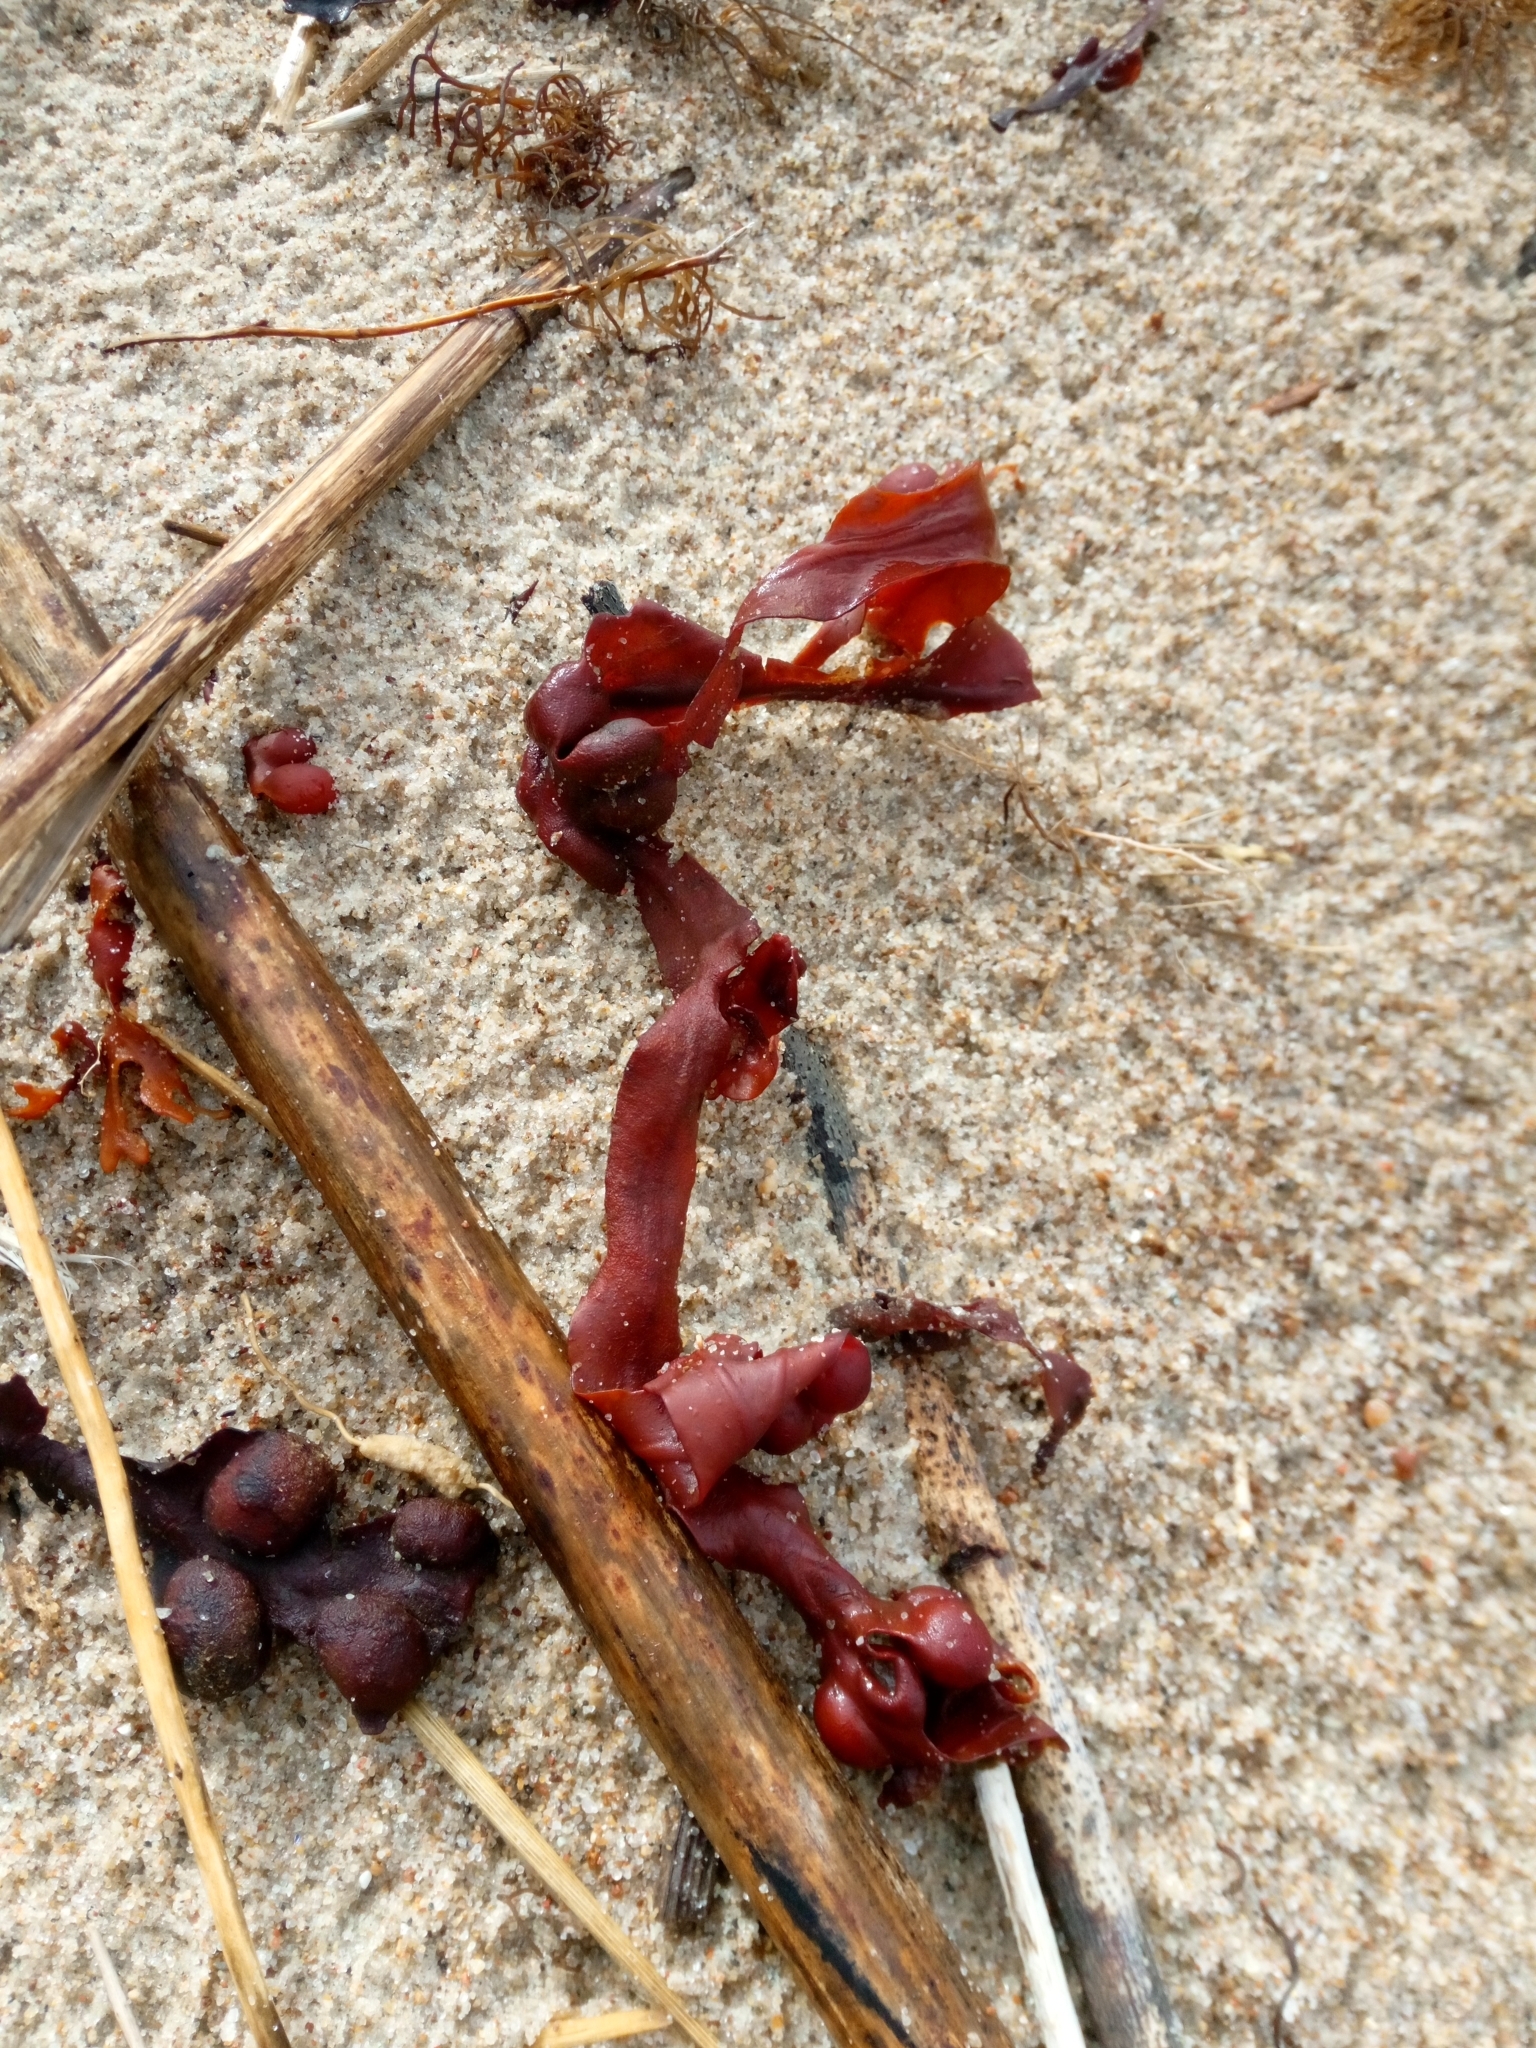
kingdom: Chromista
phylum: Ochrophyta
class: Phaeophyceae
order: Fucales
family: Fucaceae
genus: Fucus
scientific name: Fucus vesiculosus
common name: Bladder wrack
